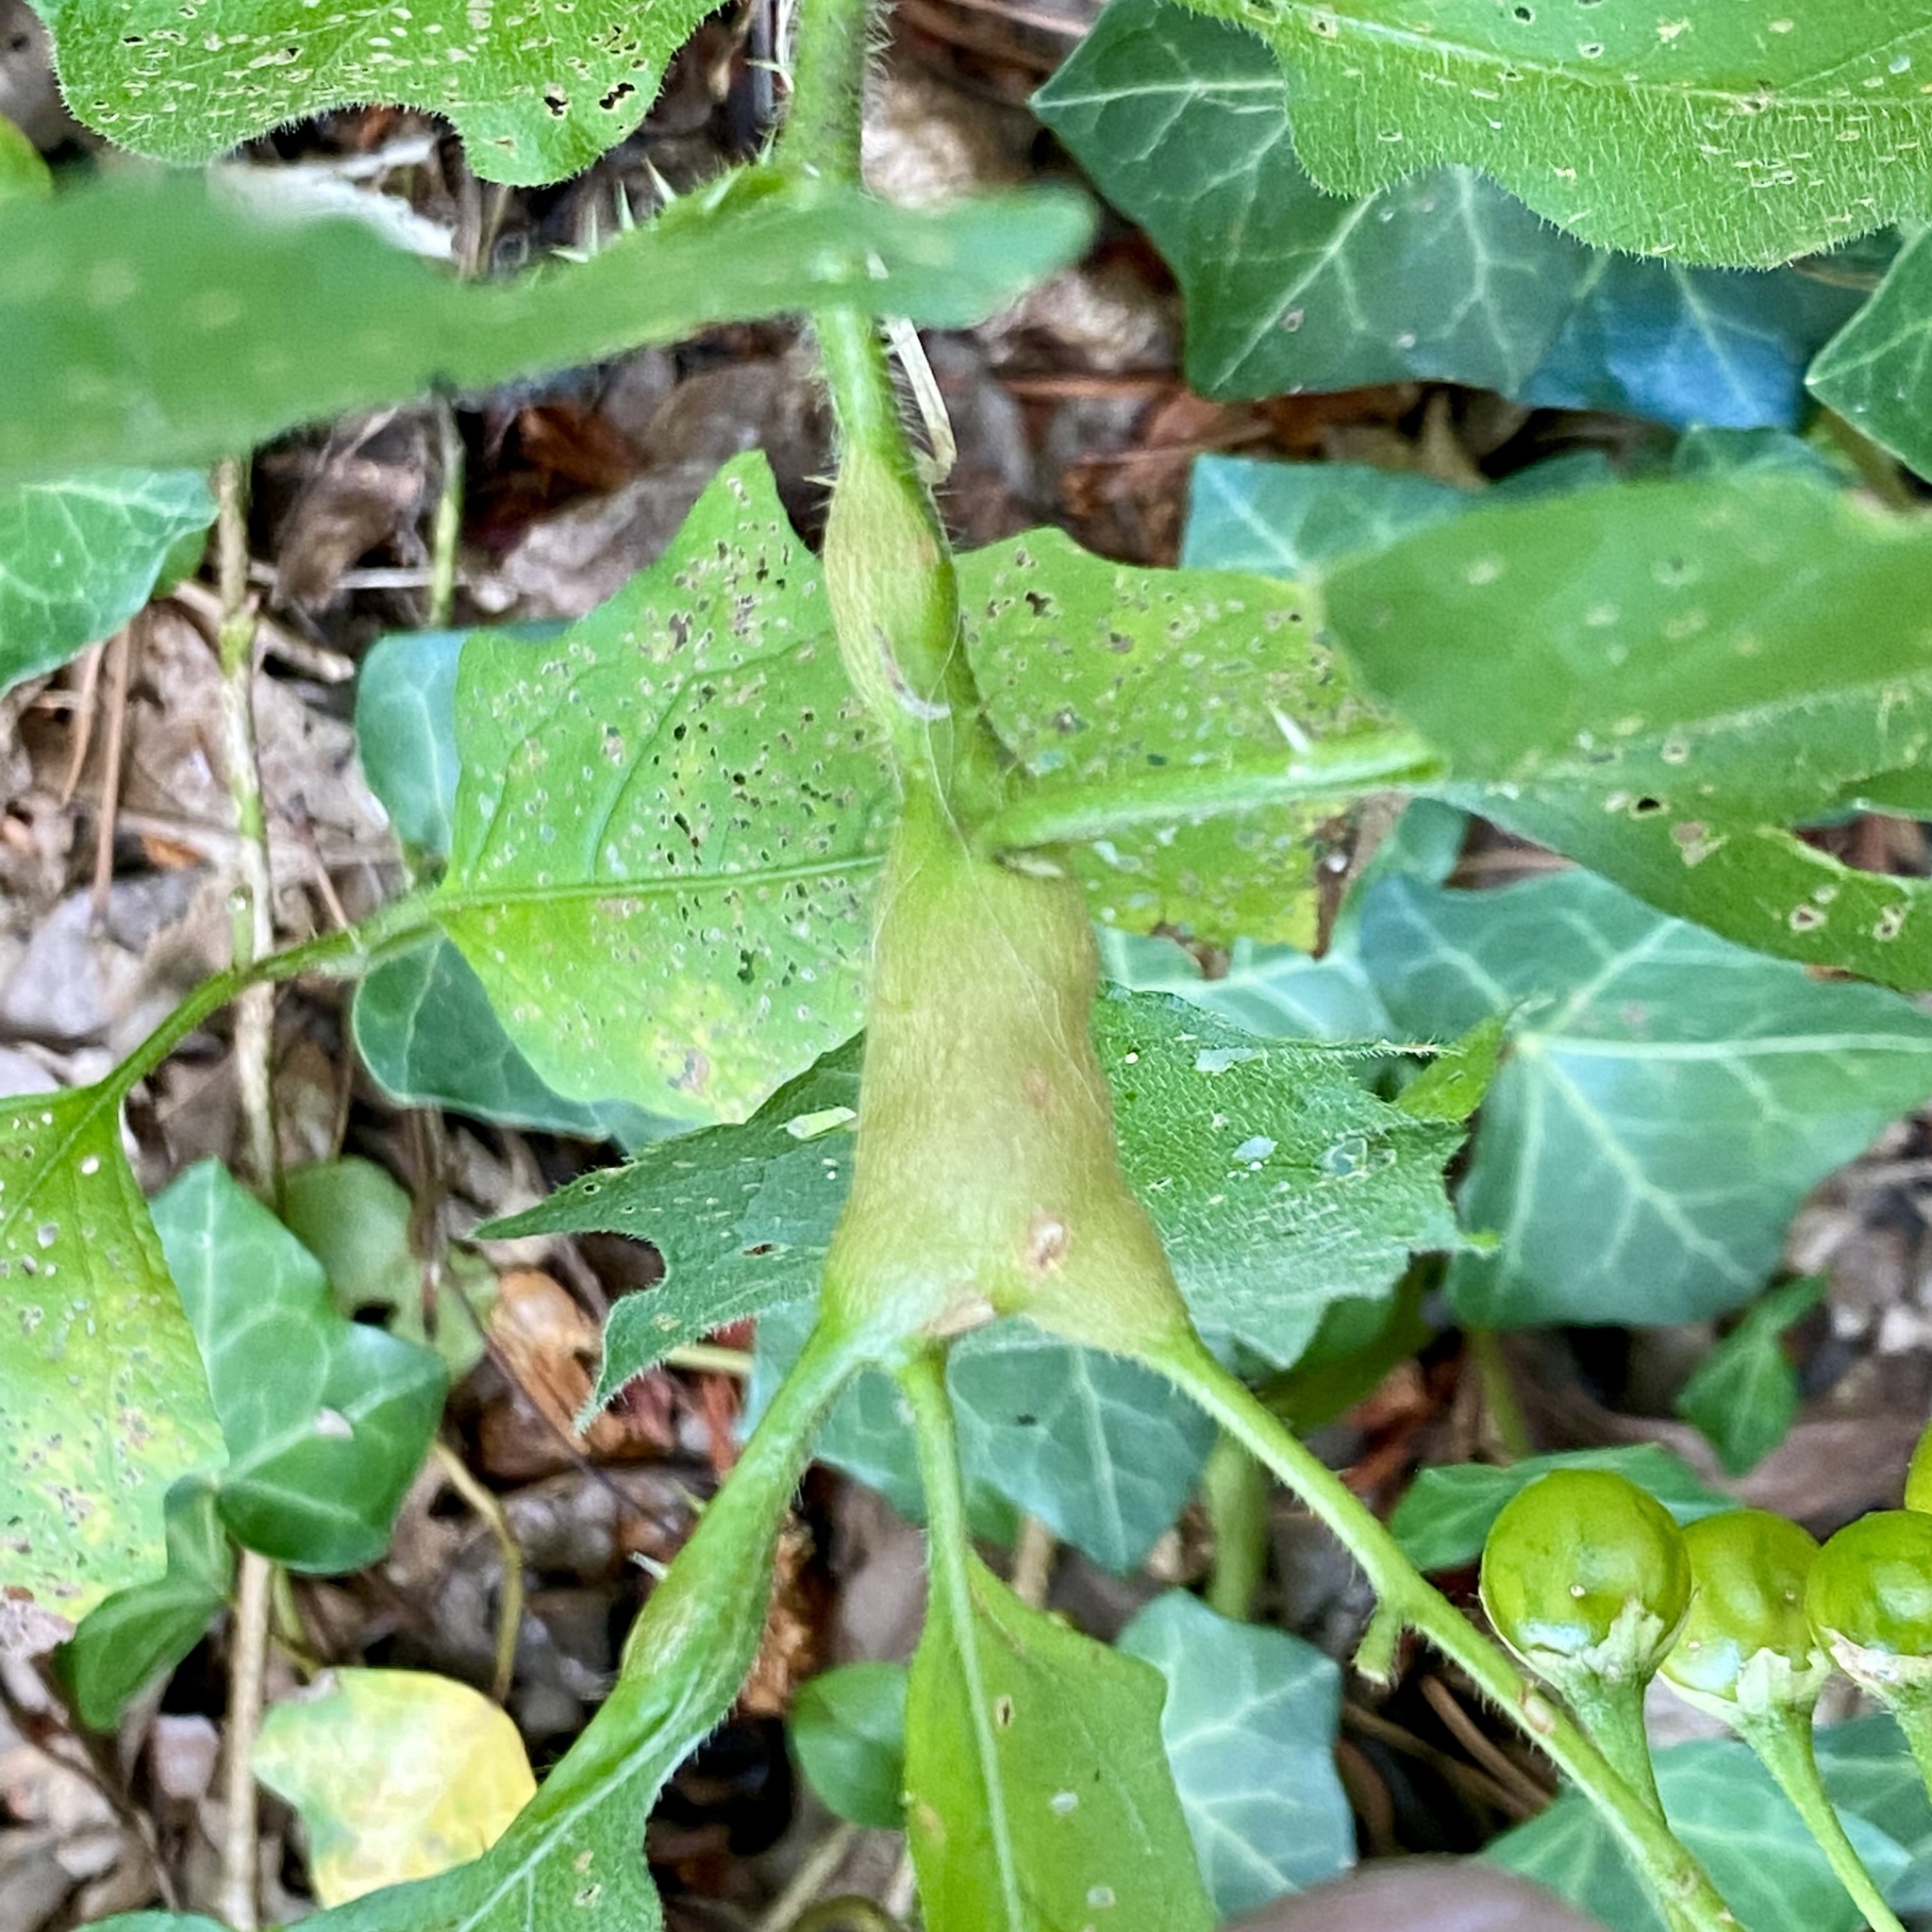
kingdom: Animalia
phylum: Arthropoda
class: Insecta
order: Diptera
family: Cecidomyiidae
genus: Lasioptera
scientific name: Lasioptera solani
